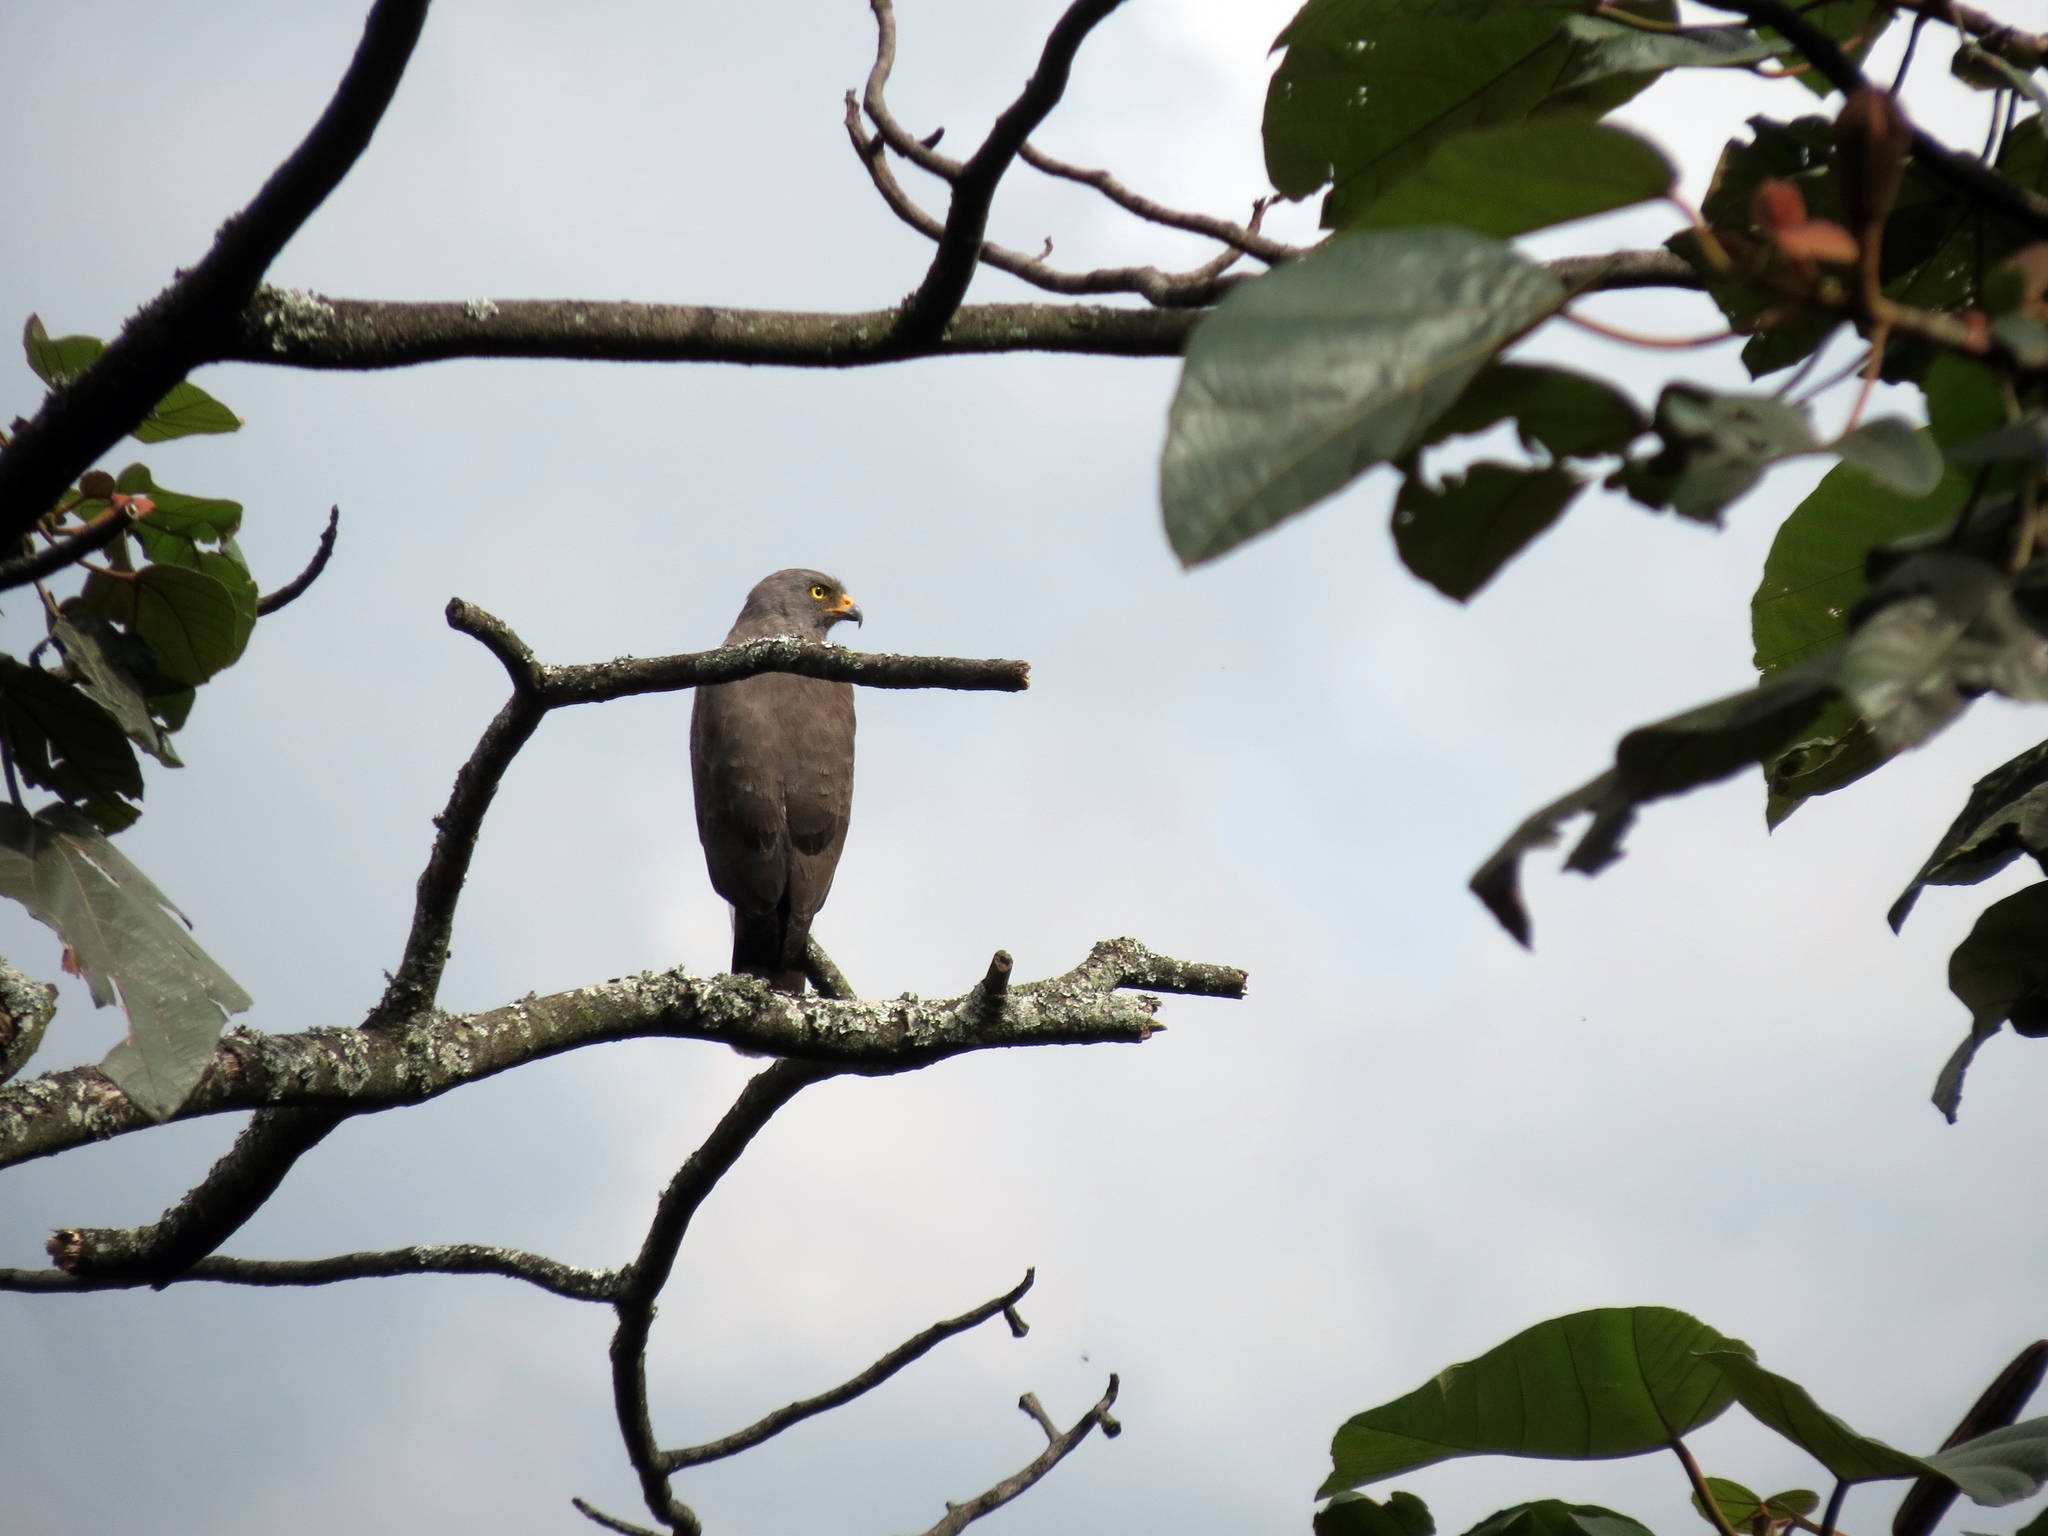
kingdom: Animalia
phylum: Chordata
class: Aves
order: Accipitriformes
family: Accipitridae
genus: Rupornis
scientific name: Rupornis magnirostris
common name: Roadside hawk
